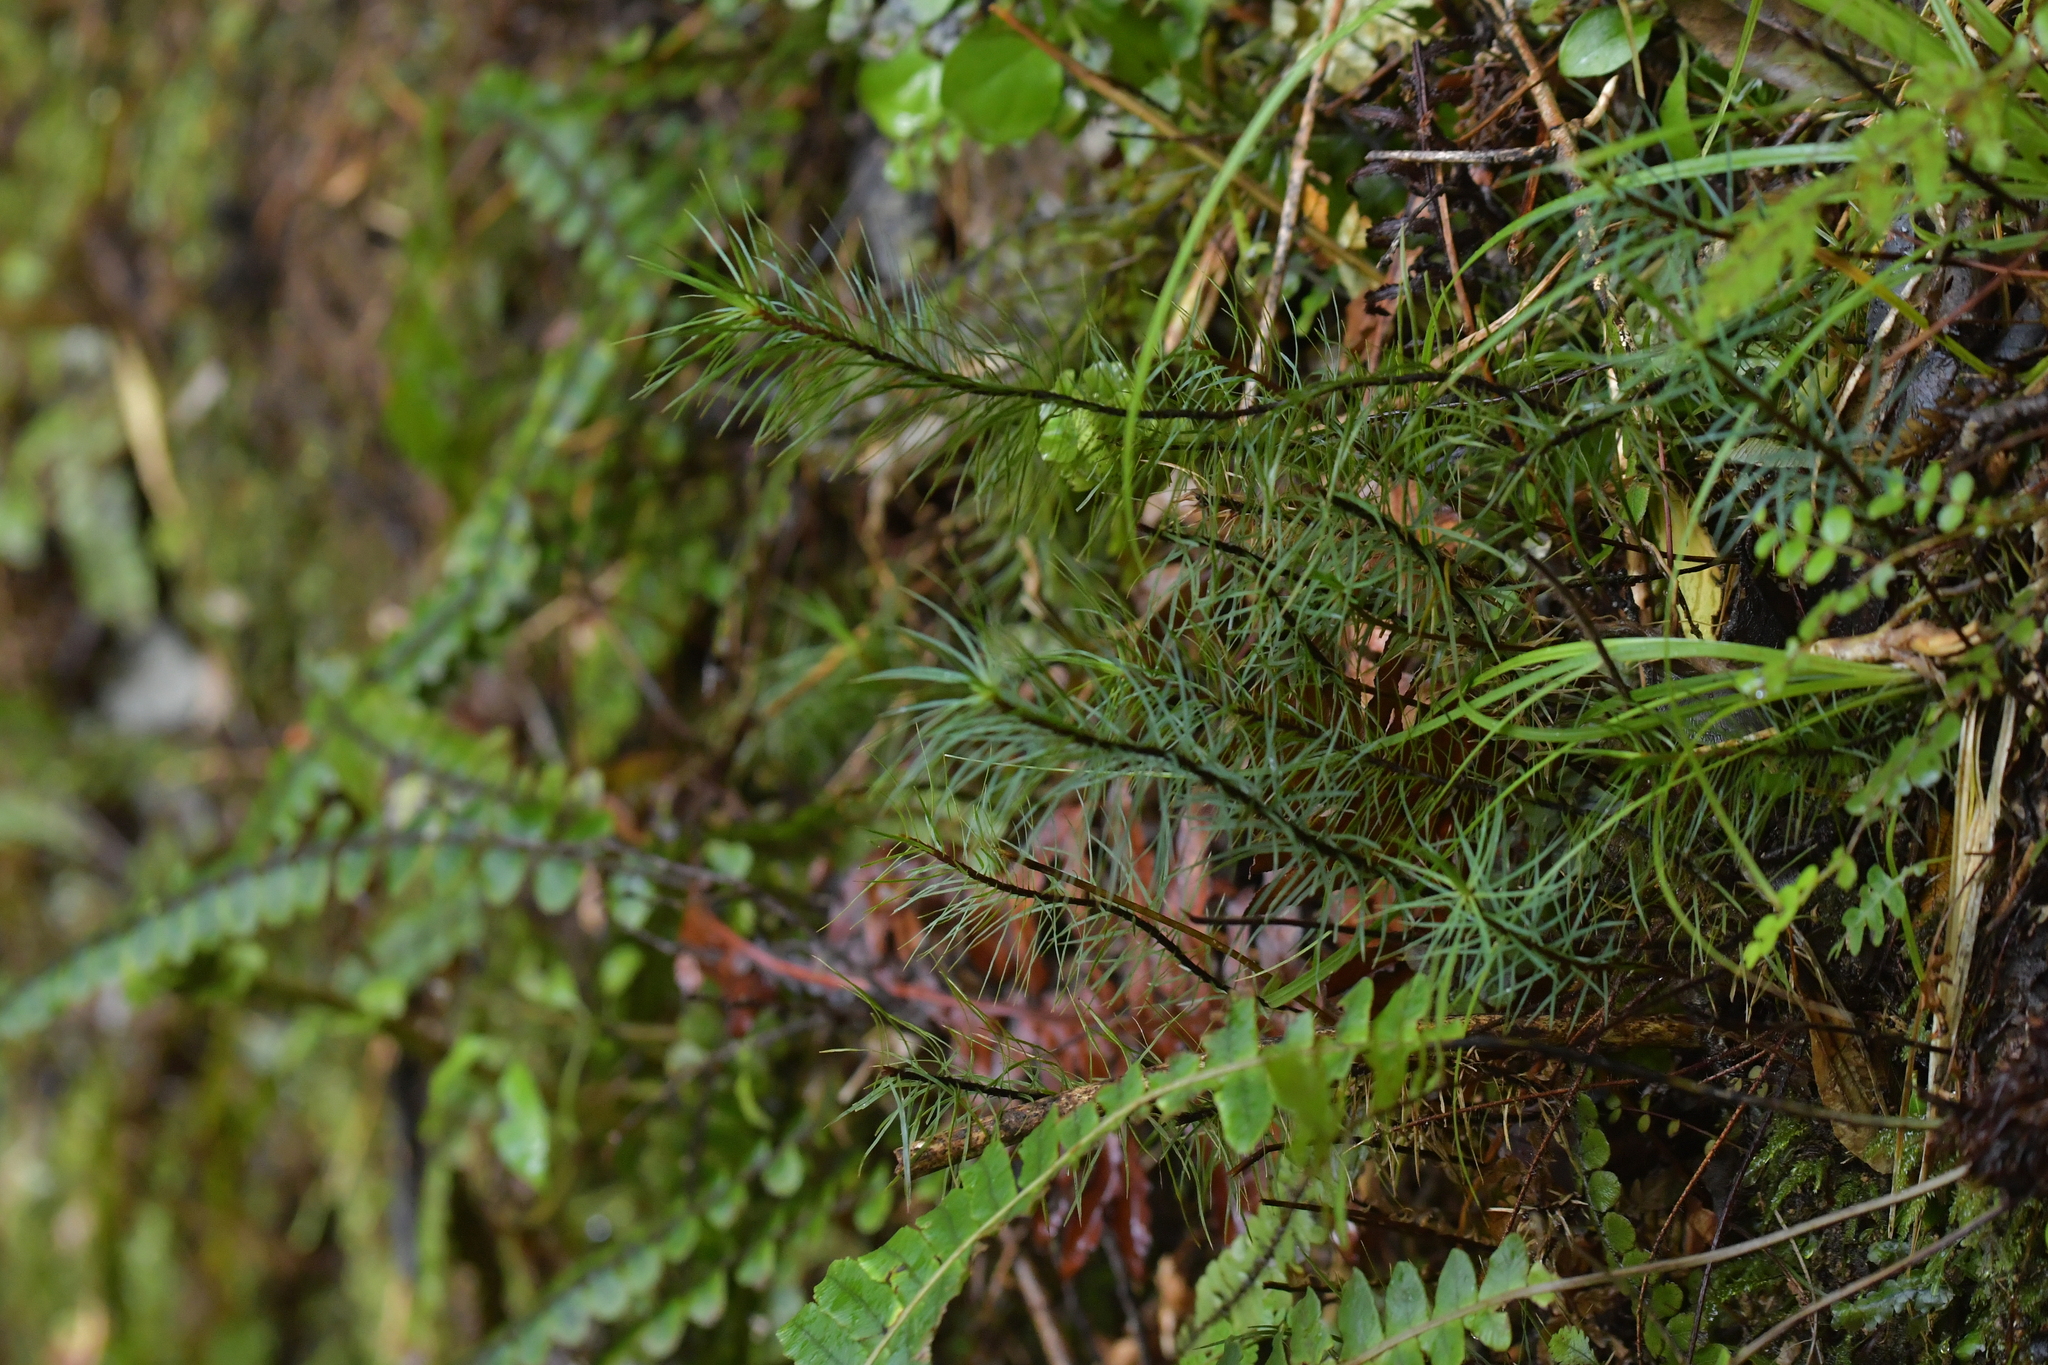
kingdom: Plantae
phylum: Bryophyta
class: Polytrichopsida
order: Polytrichales
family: Polytrichaceae
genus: Dawsonia
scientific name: Dawsonia superba
